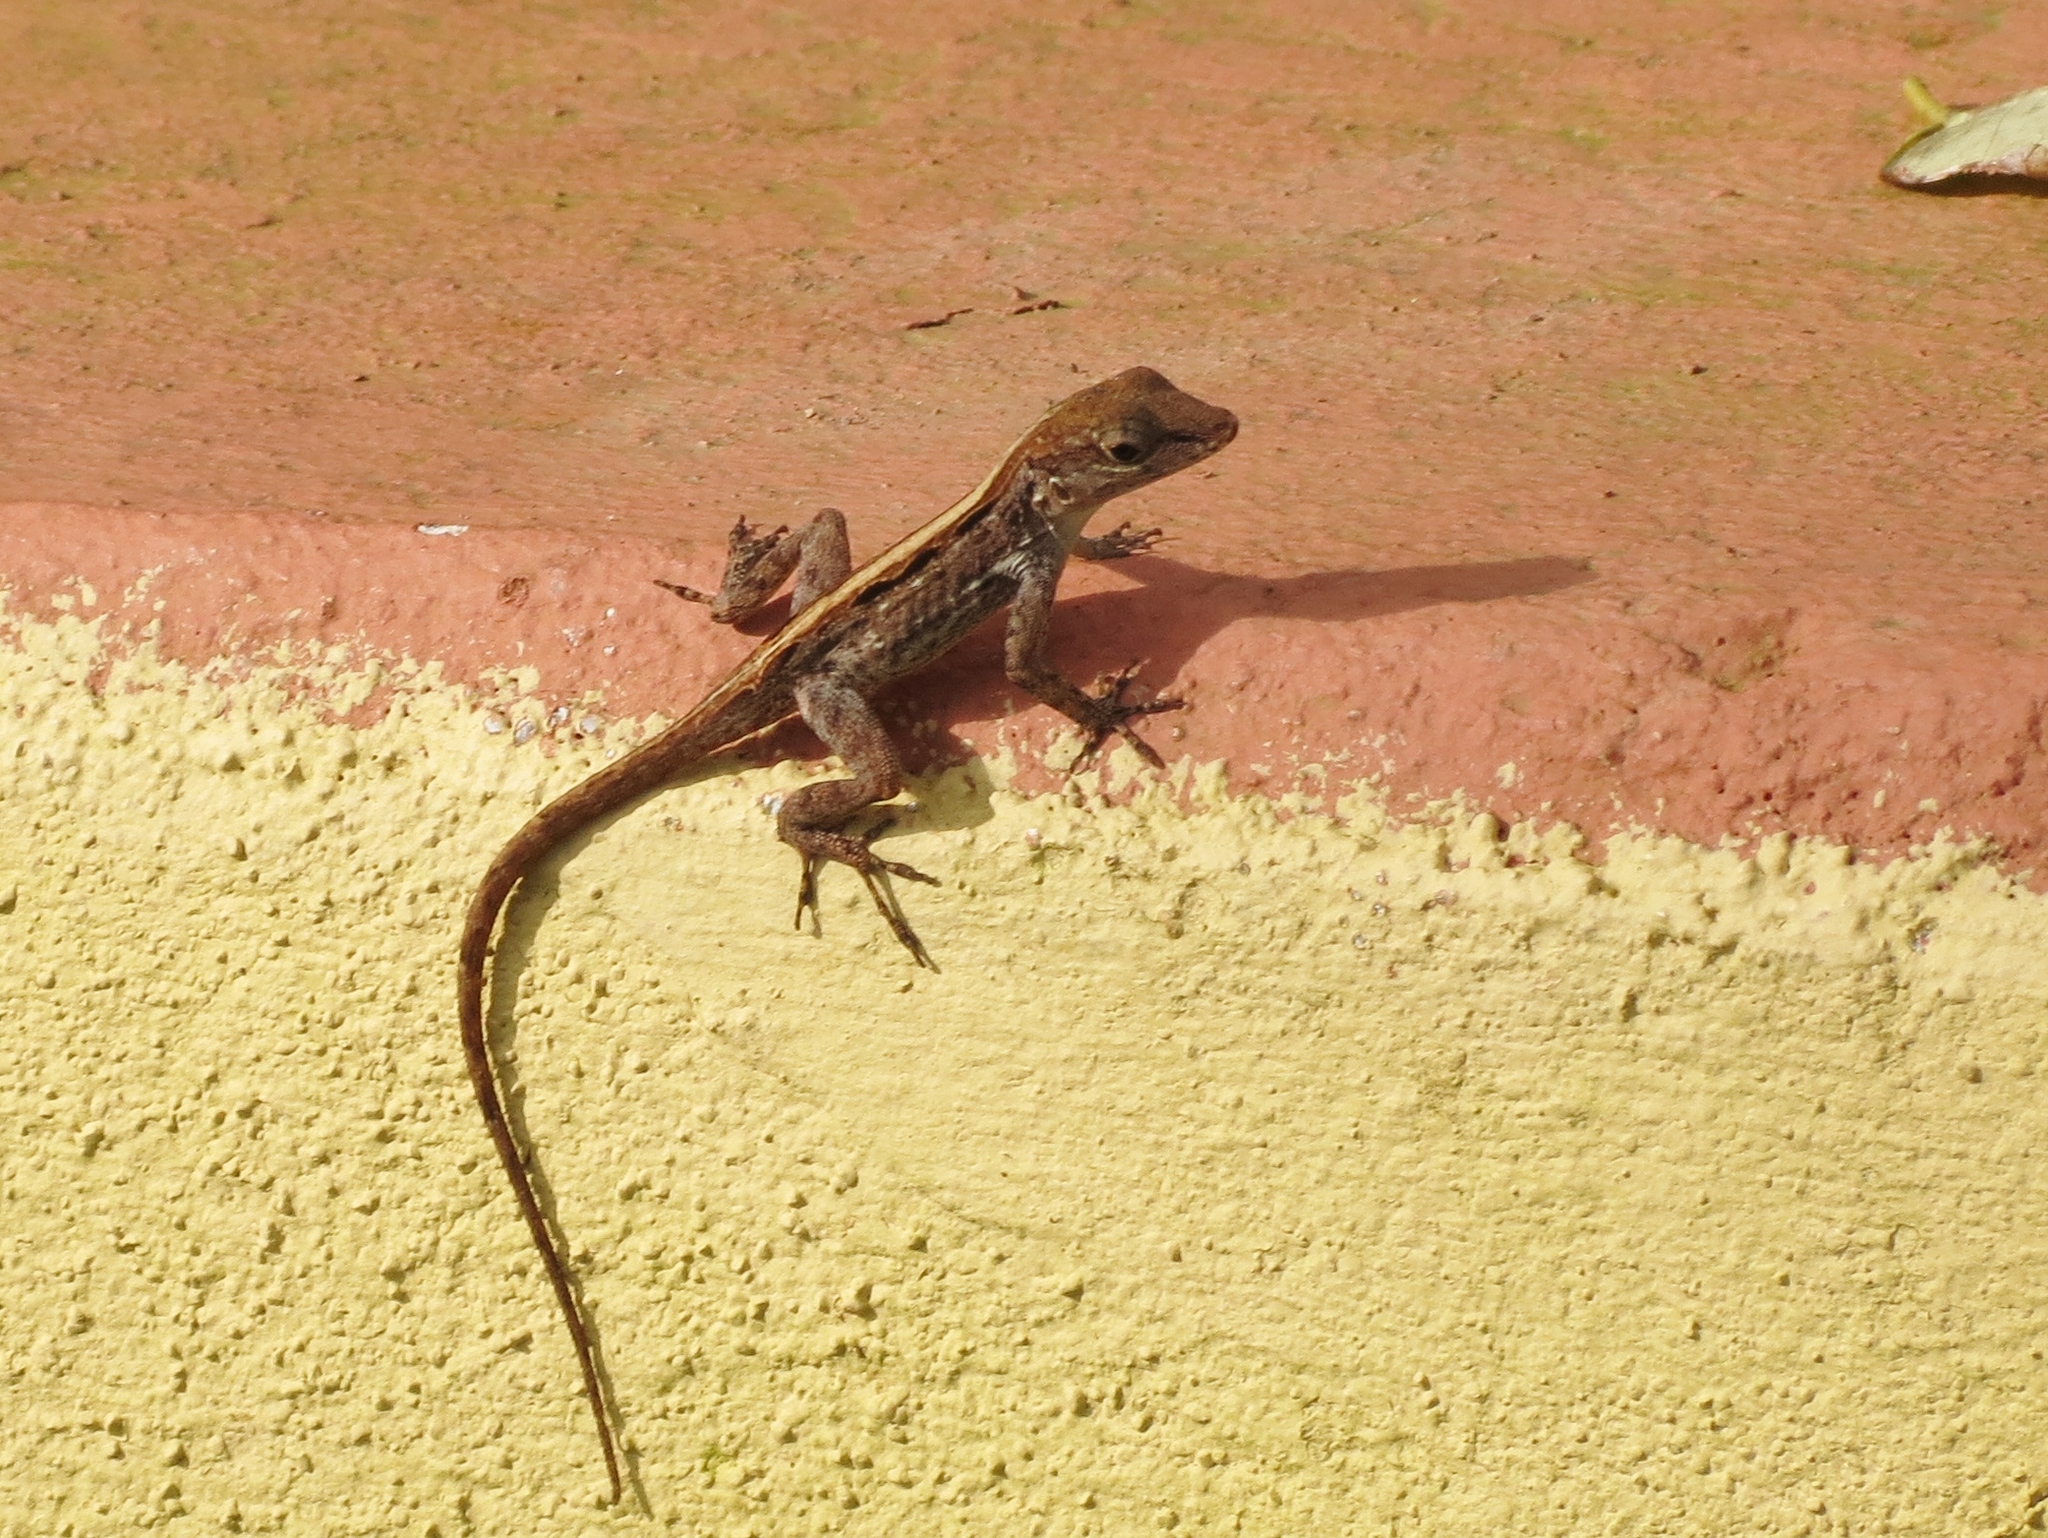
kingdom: Animalia
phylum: Chordata
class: Squamata
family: Dactyloidae
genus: Anolis
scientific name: Anolis cristatellus
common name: Crested anole
